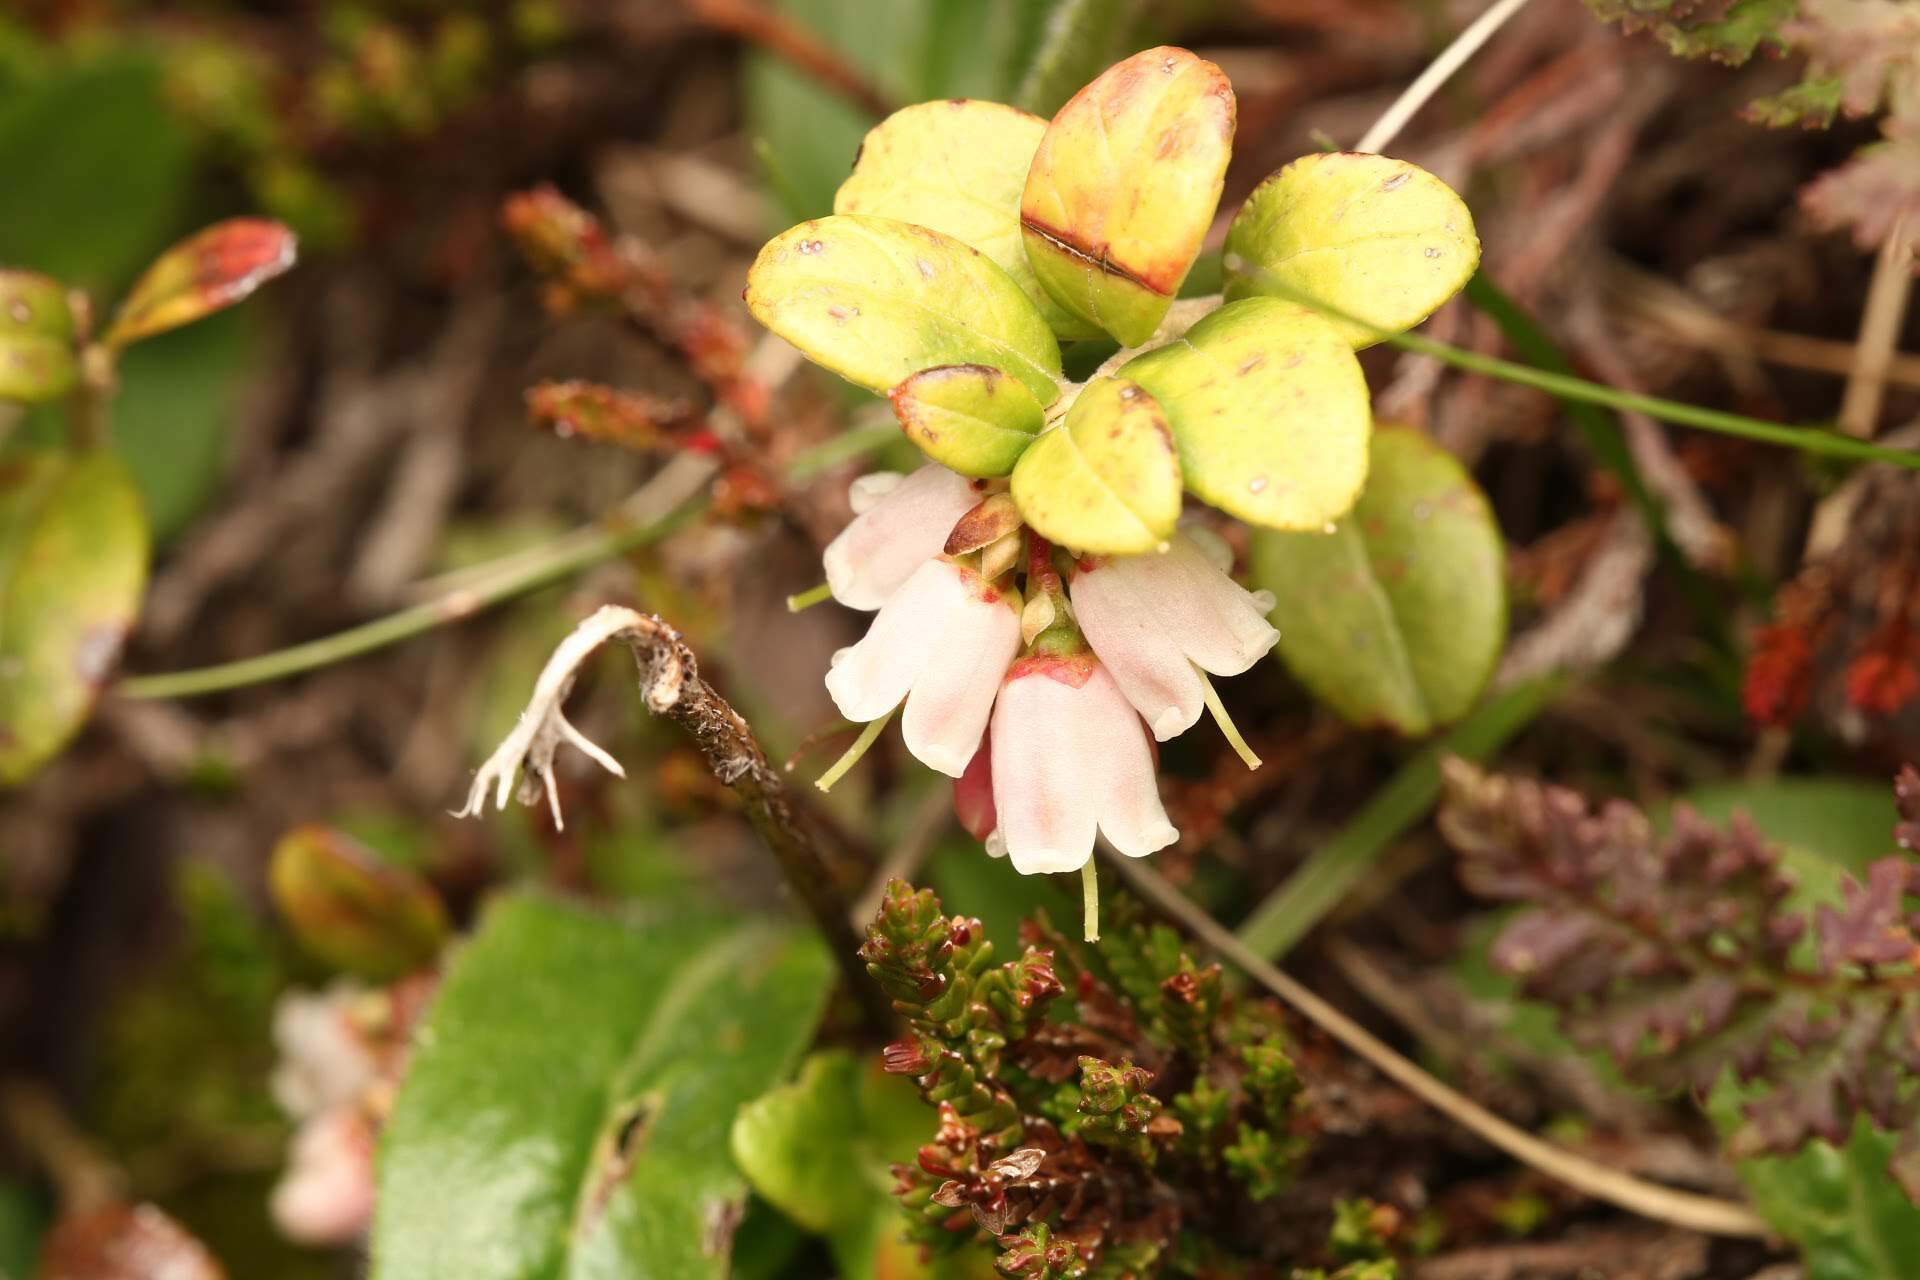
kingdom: Plantae
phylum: Tracheophyta
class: Magnoliopsida
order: Ericales
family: Ericaceae
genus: Vaccinium
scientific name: Vaccinium vitis-idaea
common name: Cowberry
